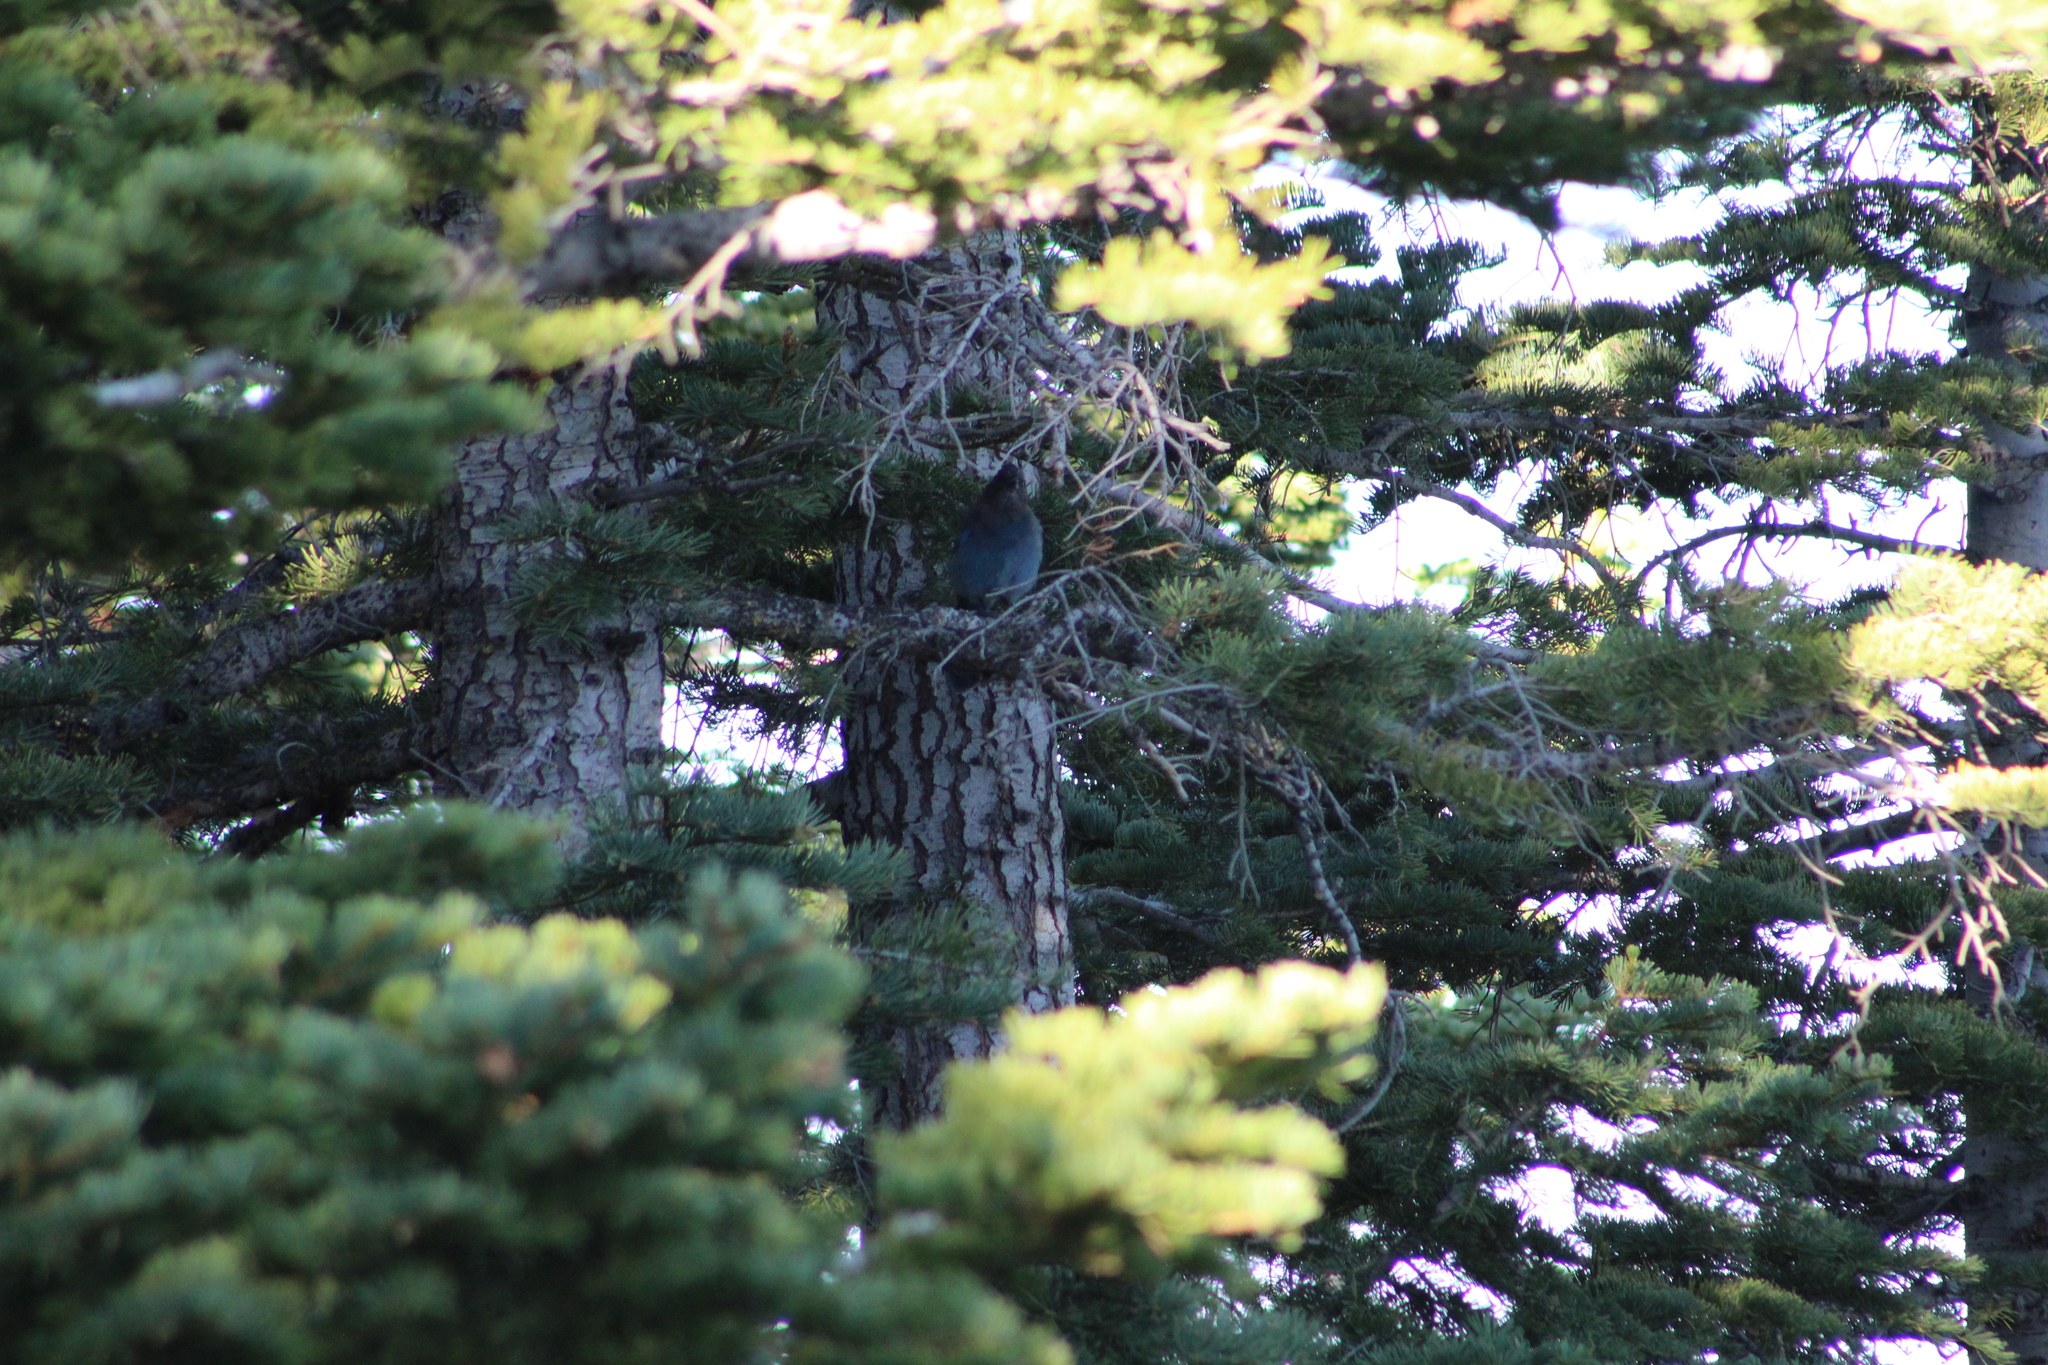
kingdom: Animalia
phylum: Chordata
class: Aves
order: Passeriformes
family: Corvidae
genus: Cyanocitta
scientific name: Cyanocitta stelleri
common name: Steller's jay
